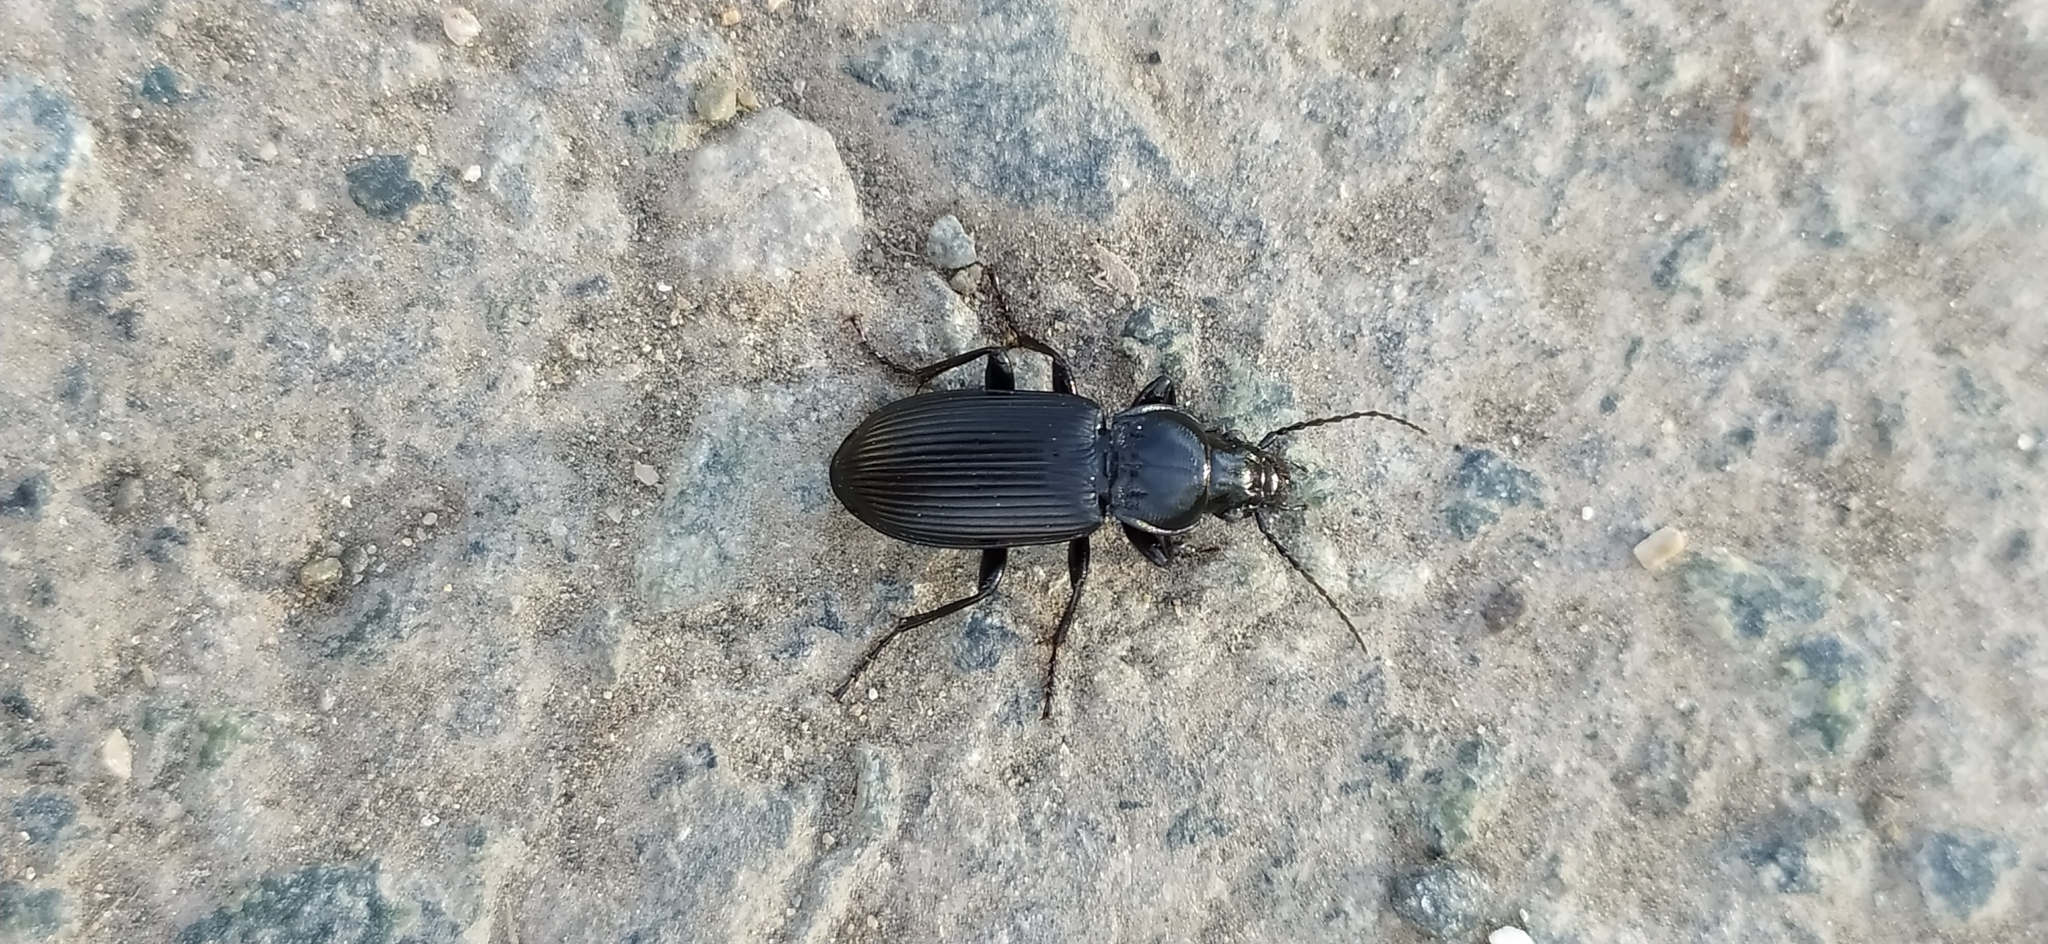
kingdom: Animalia
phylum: Arthropoda
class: Insecta
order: Coleoptera
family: Carabidae
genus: Pterostichus
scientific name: Pterostichus melanarius
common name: European dark harp ground beetle
